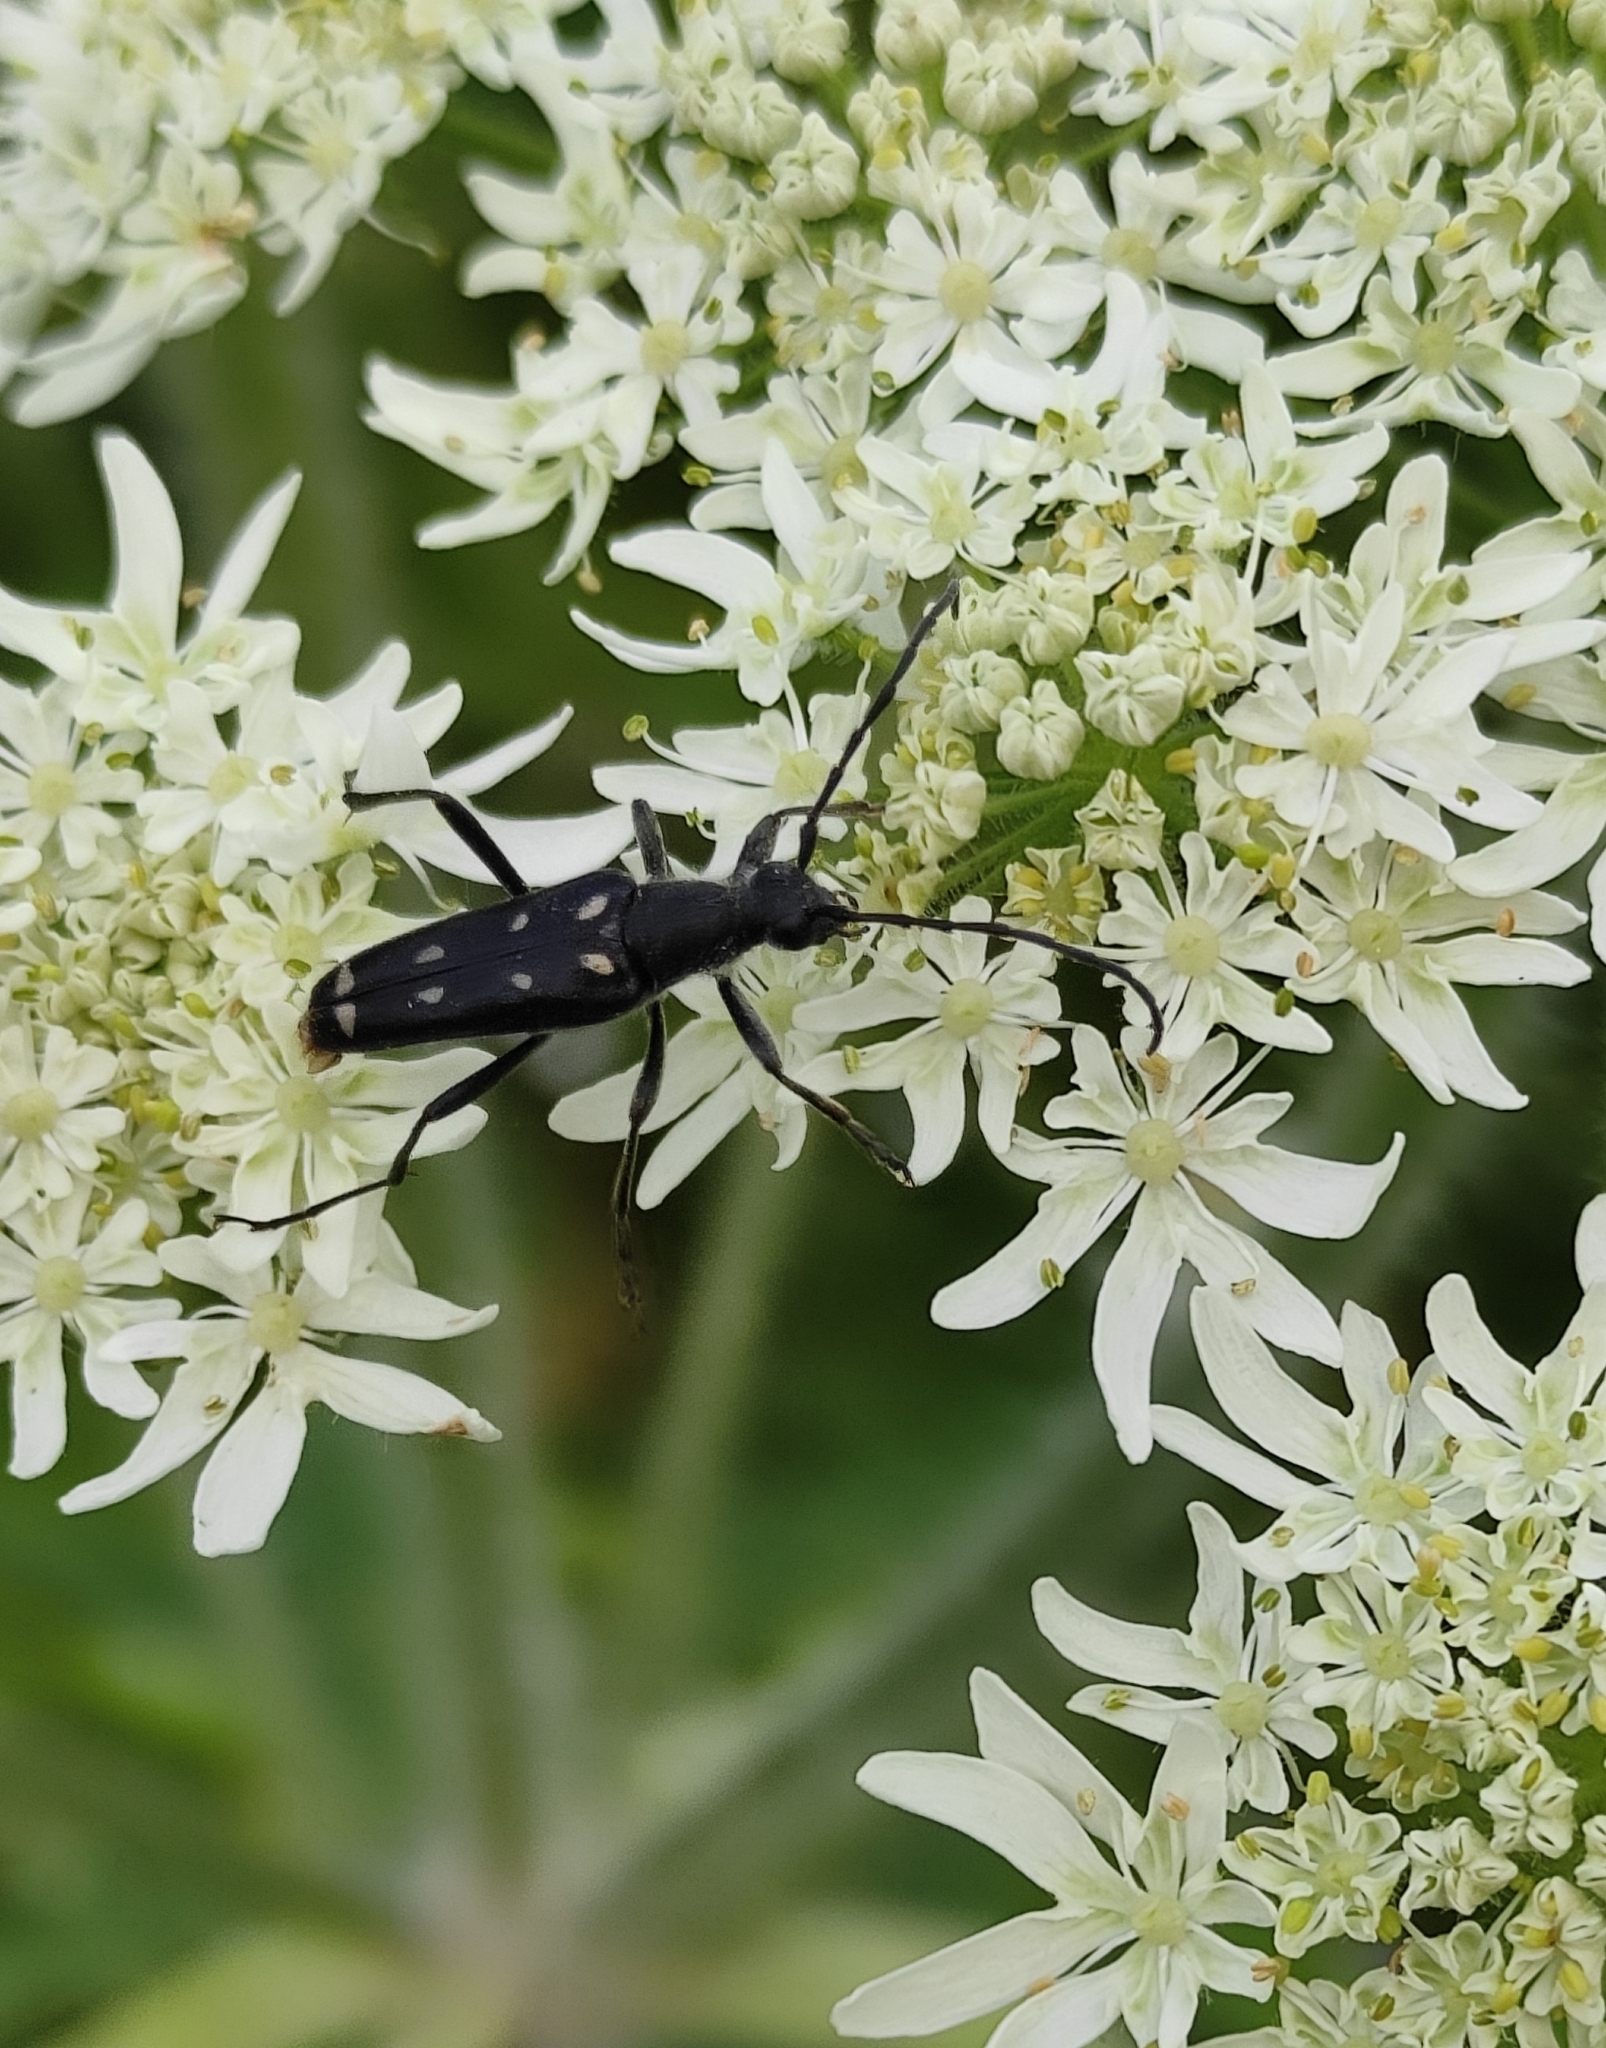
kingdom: Animalia
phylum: Arthropoda
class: Insecta
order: Coleoptera
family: Cerambycidae
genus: Leptura
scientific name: Leptura duodecimguttata
